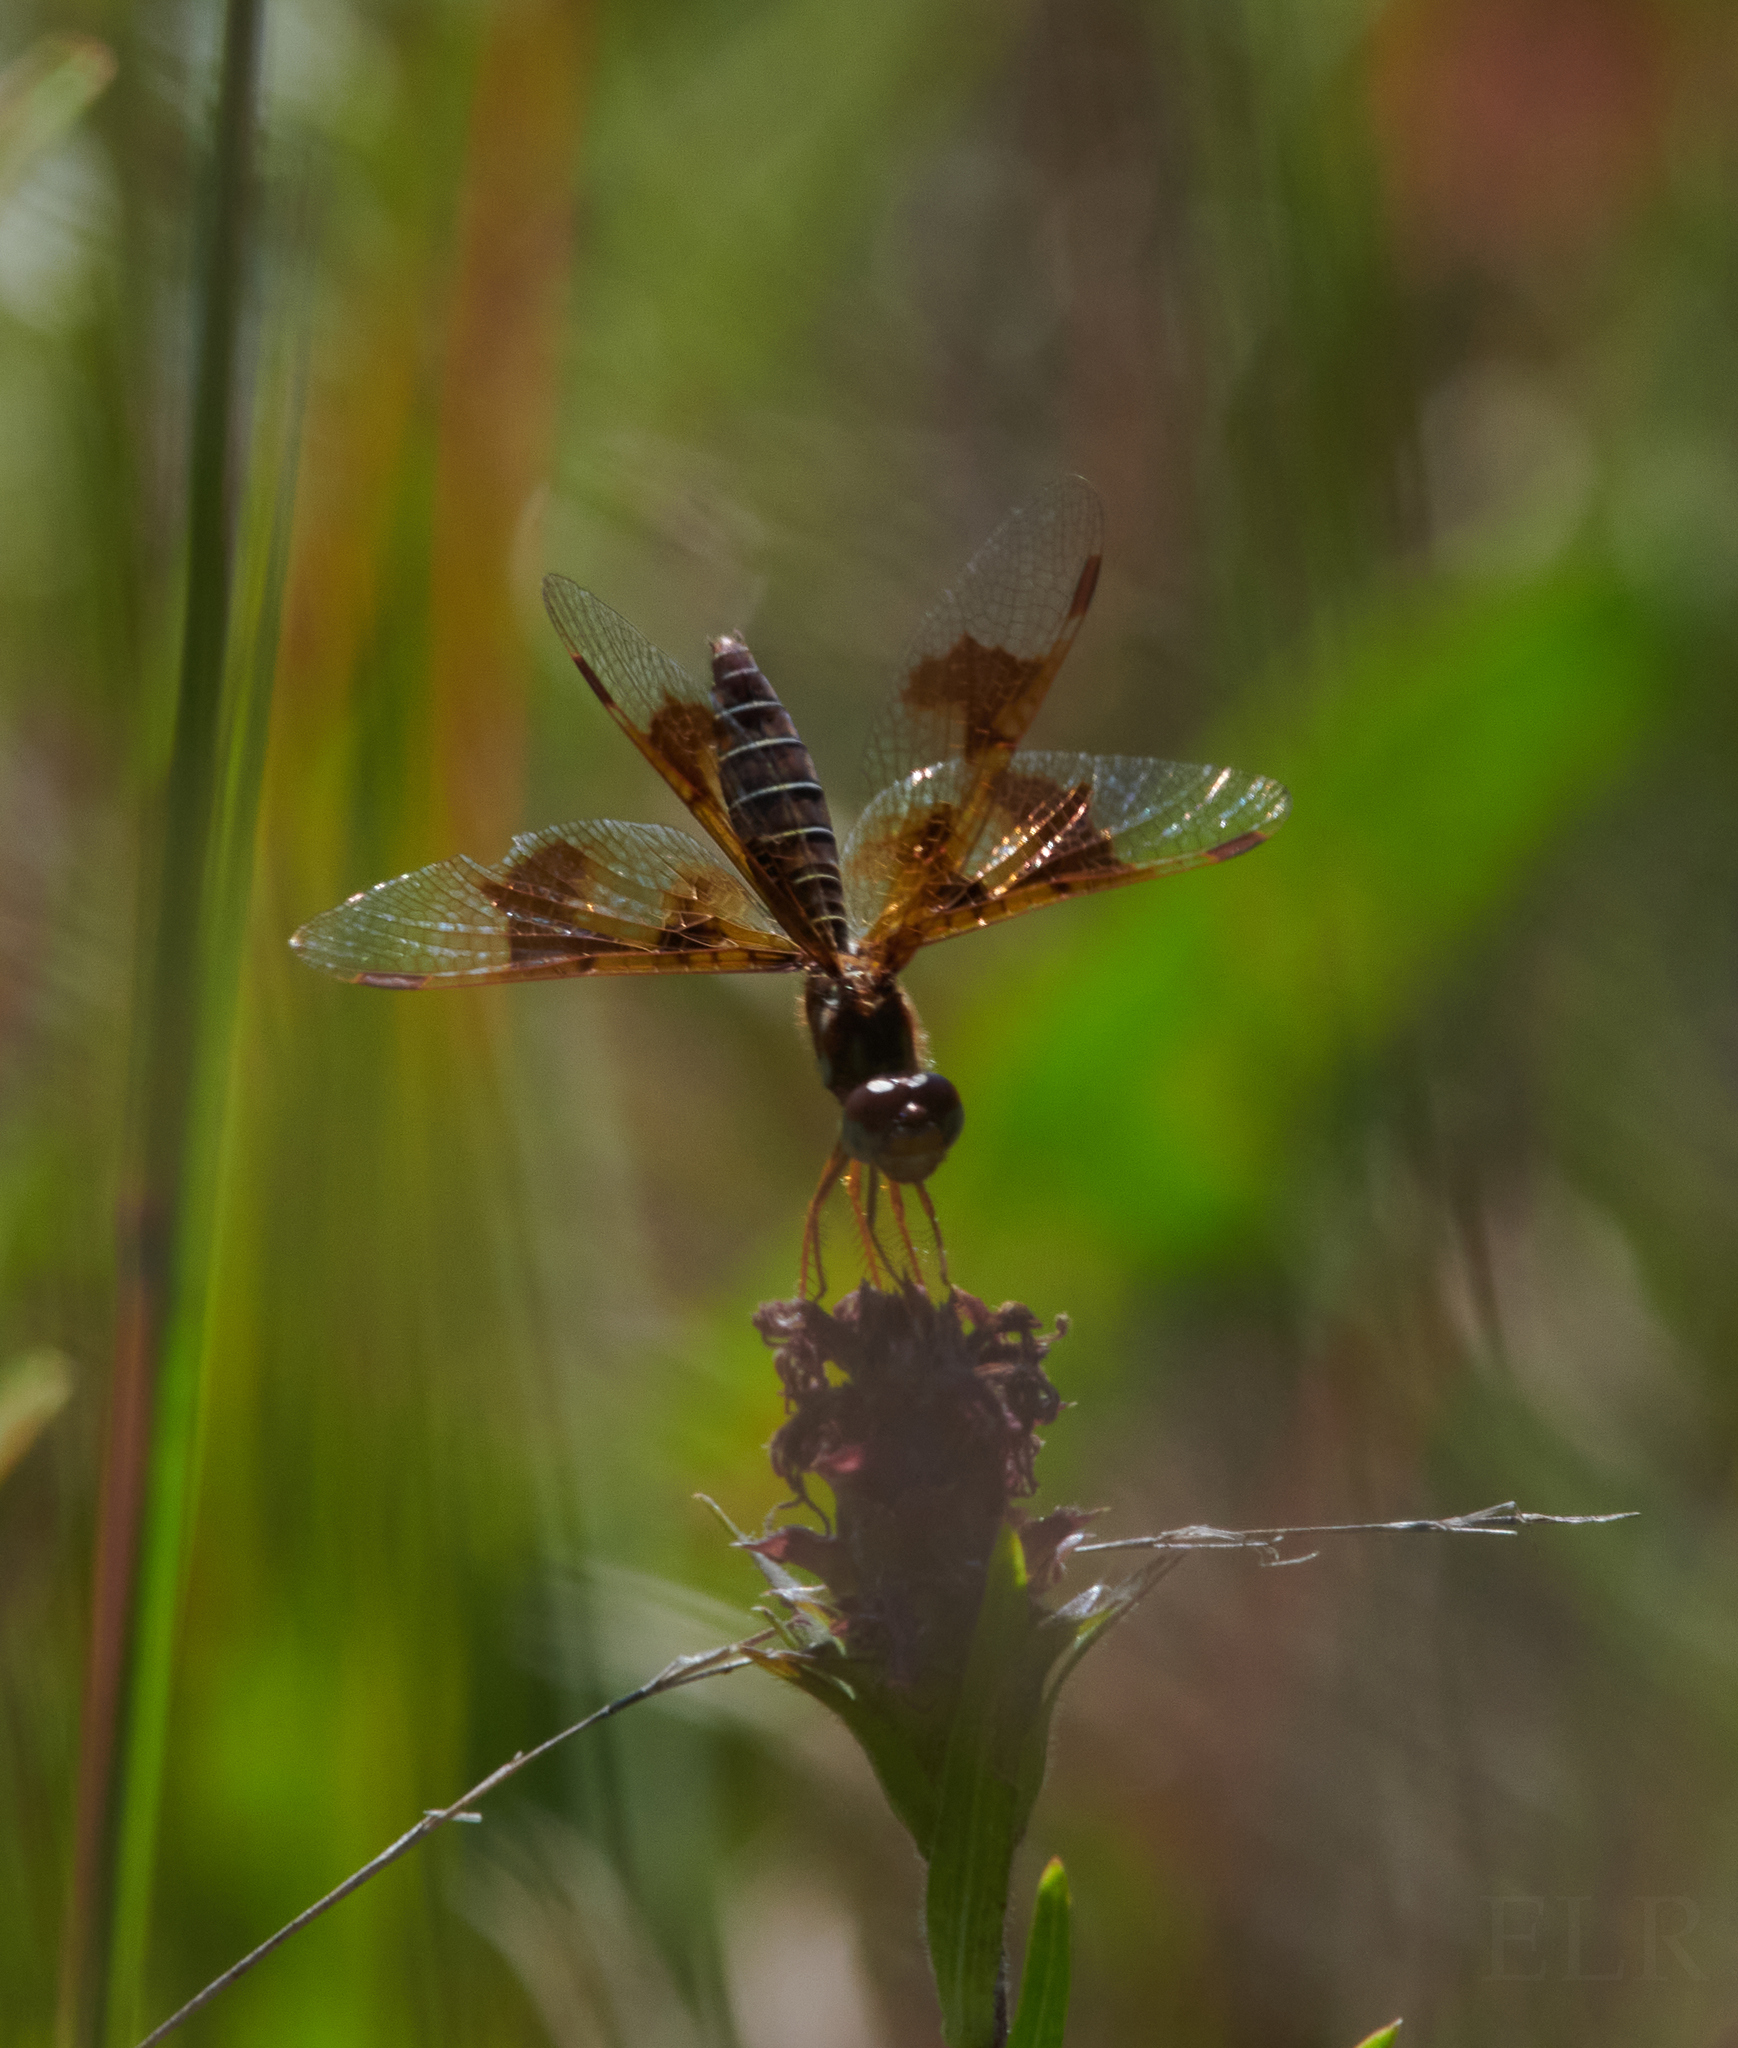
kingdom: Animalia
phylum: Arthropoda
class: Insecta
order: Odonata
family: Libellulidae
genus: Perithemis
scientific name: Perithemis tenera
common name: Eastern amberwing
